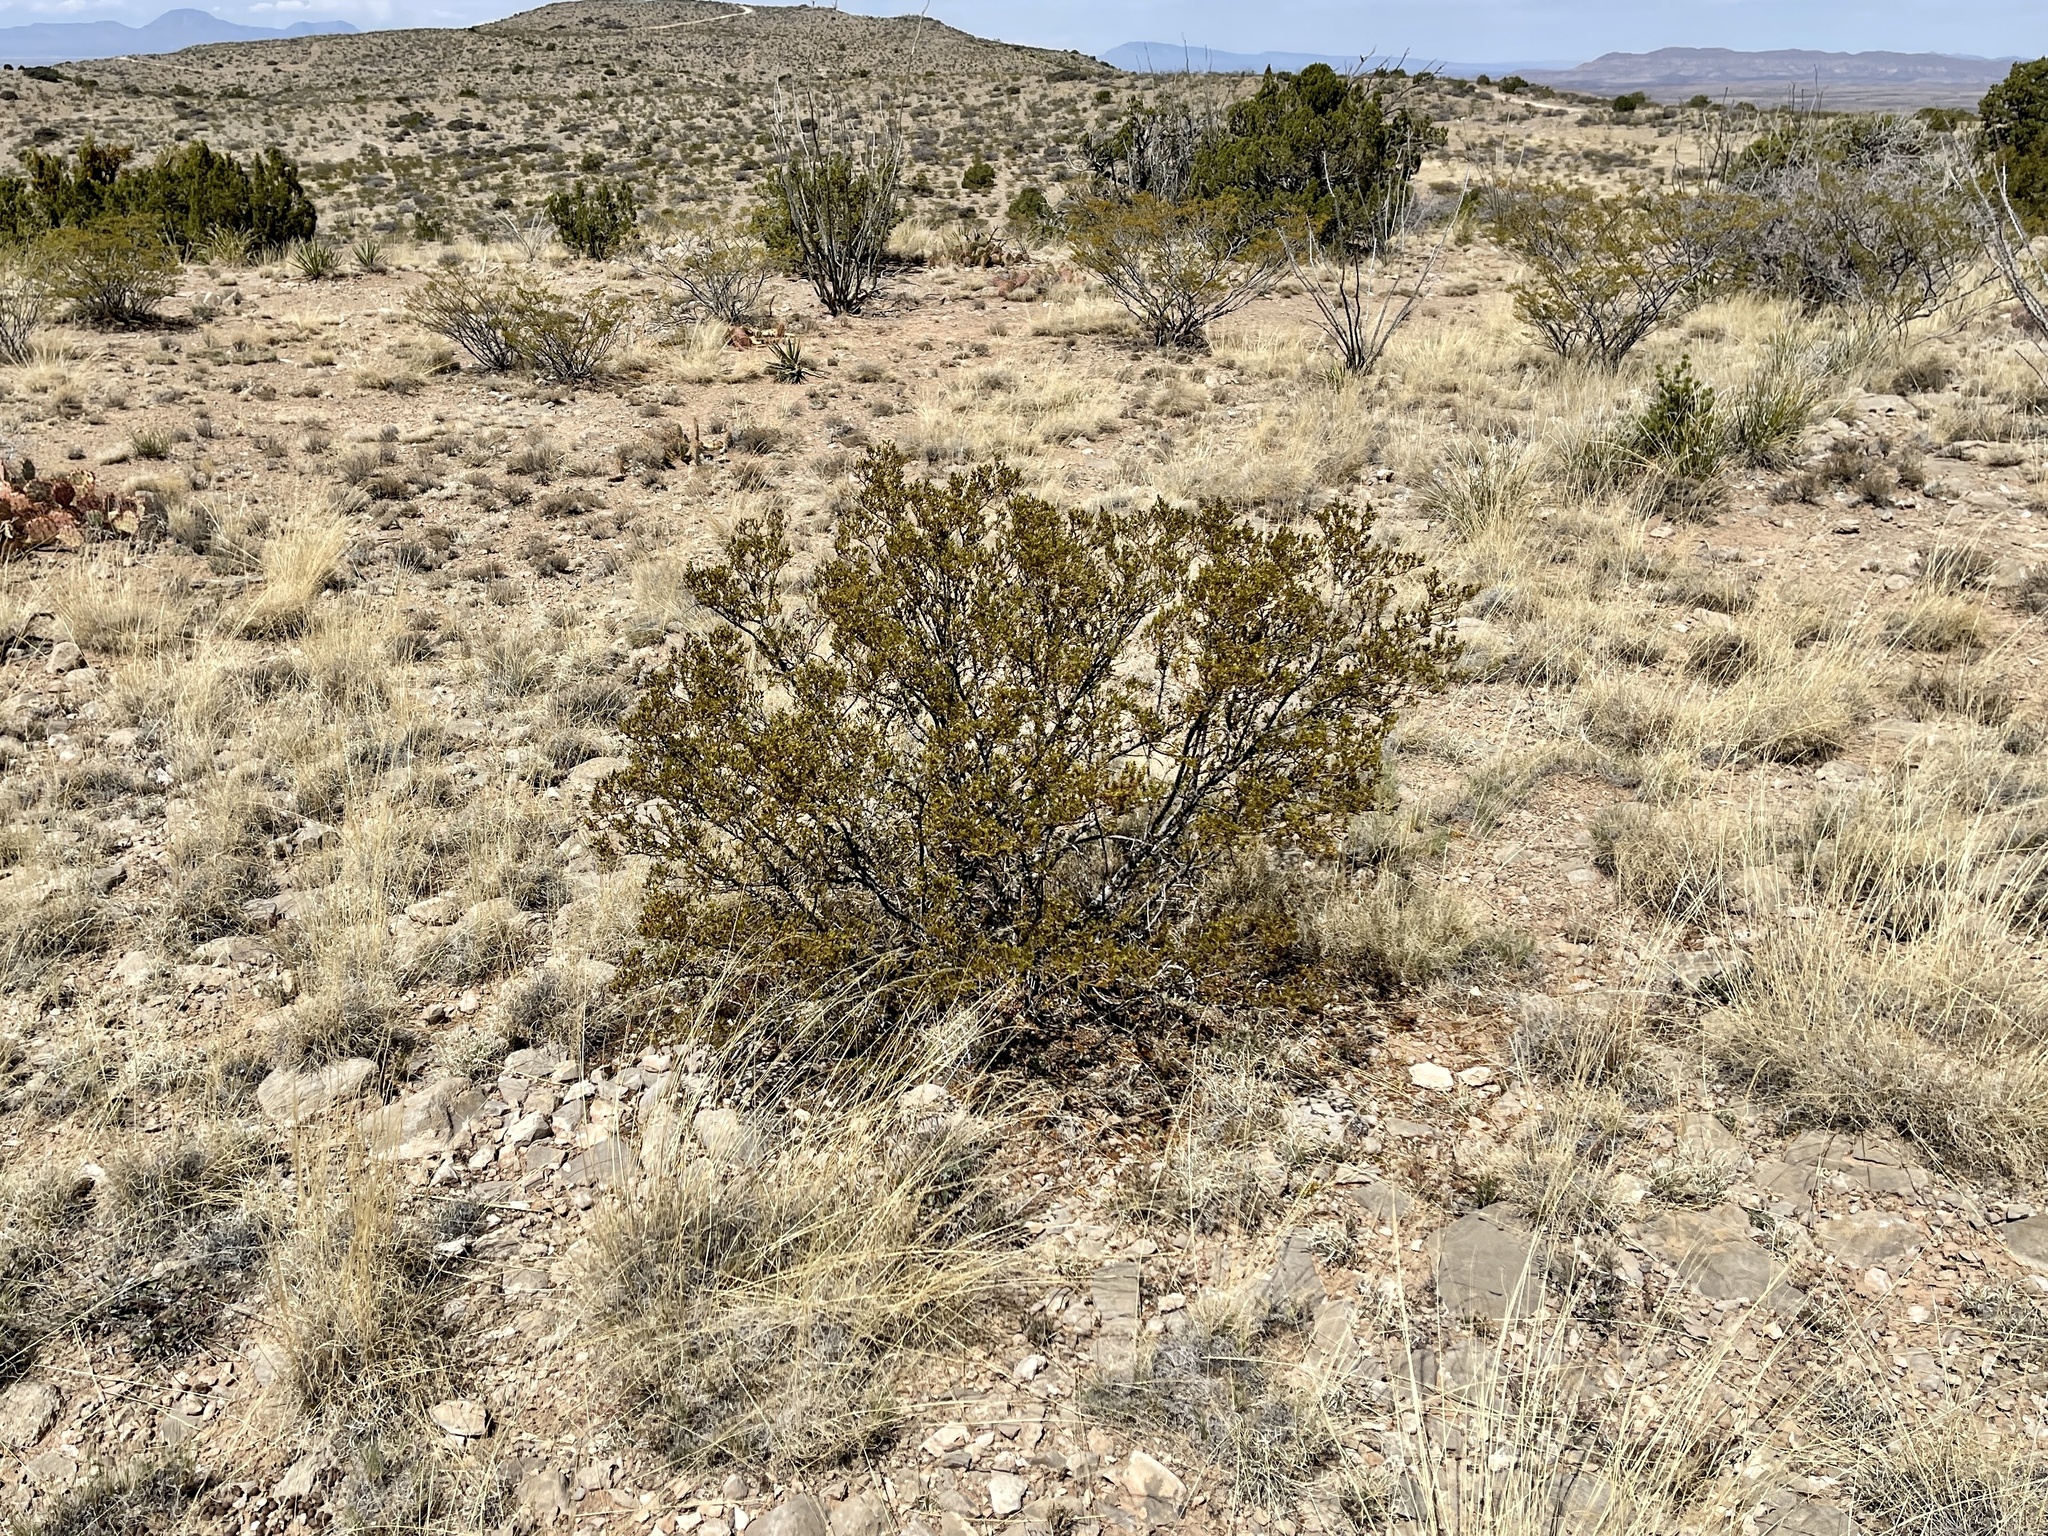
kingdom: Plantae
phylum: Tracheophyta
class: Magnoliopsida
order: Zygophyllales
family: Zygophyllaceae
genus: Larrea
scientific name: Larrea tridentata
